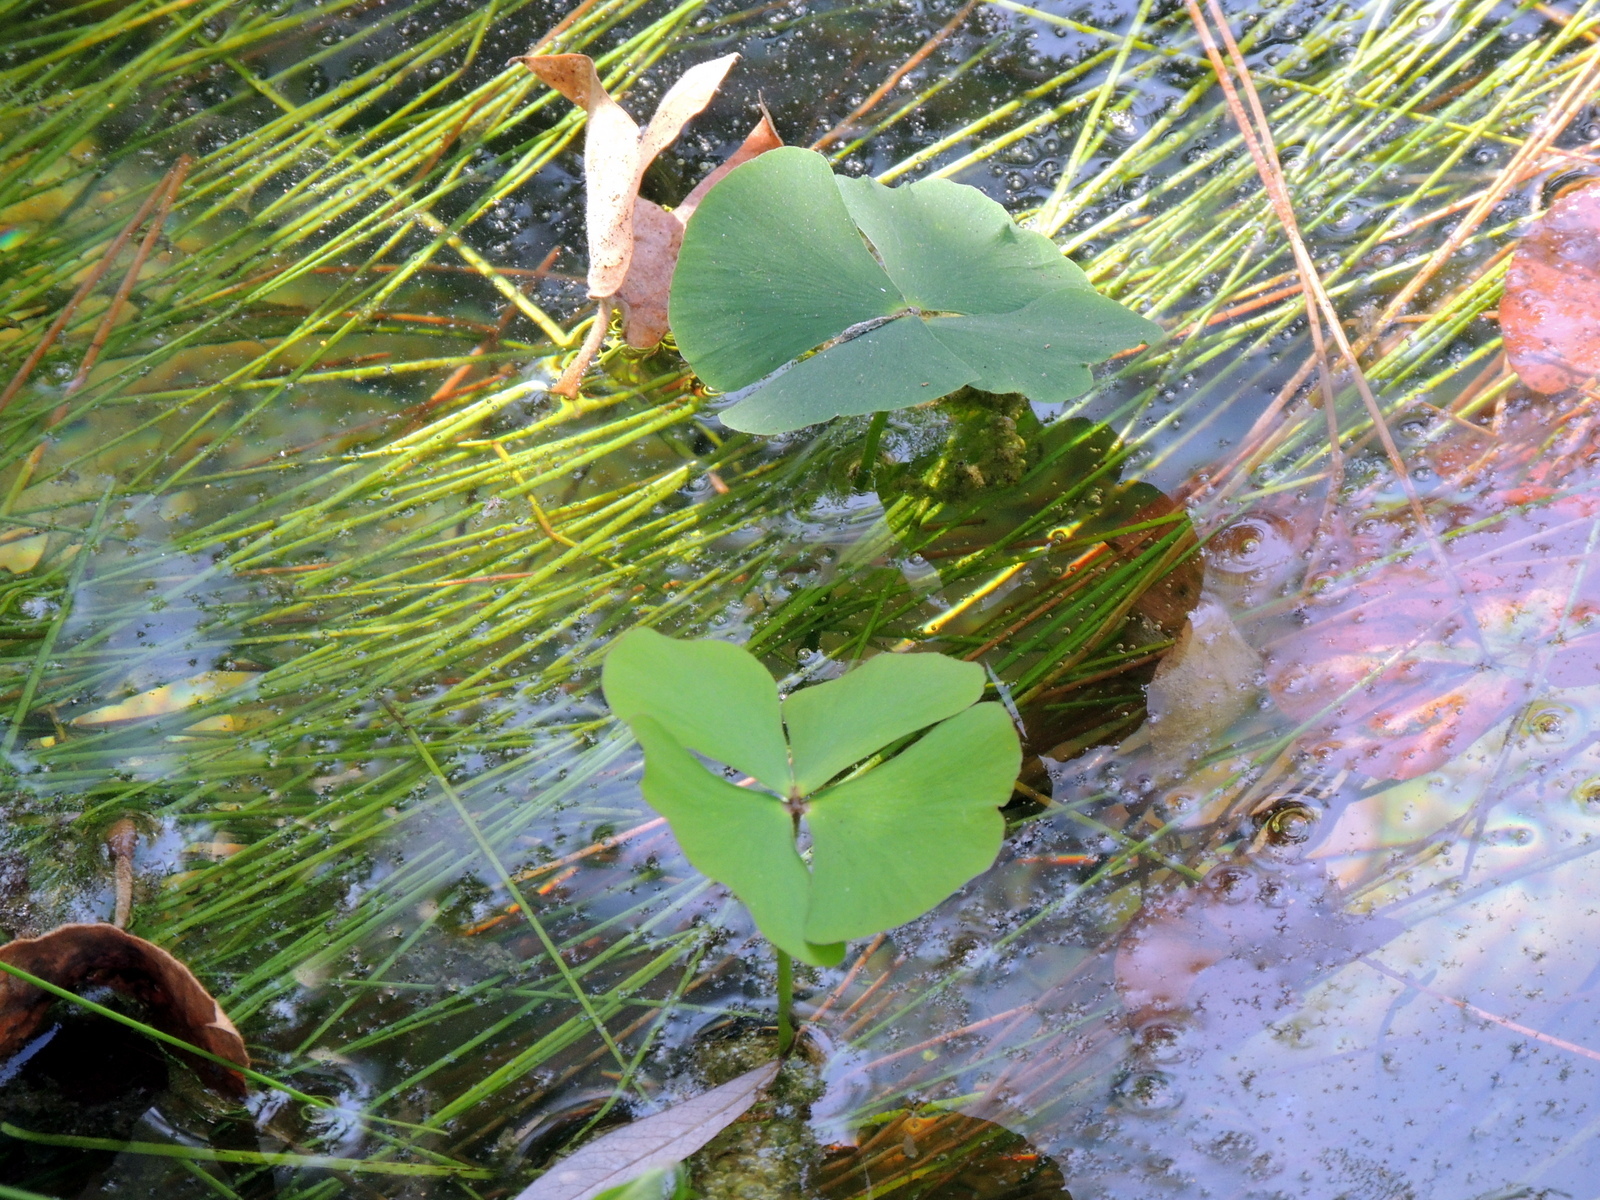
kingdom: Plantae
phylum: Tracheophyta
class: Polypodiopsida
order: Salviniales
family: Marsileaceae
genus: Marsilea
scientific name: Marsilea vestita
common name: Hooked-pepperwort
